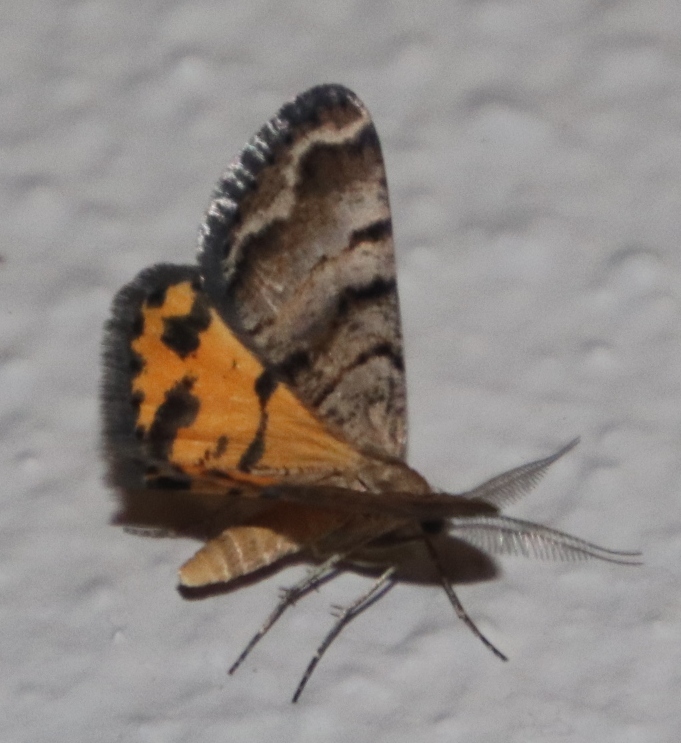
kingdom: Animalia
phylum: Arthropoda
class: Insecta
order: Lepidoptera
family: Geometridae
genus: Isturgia
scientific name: Isturgia focularia
